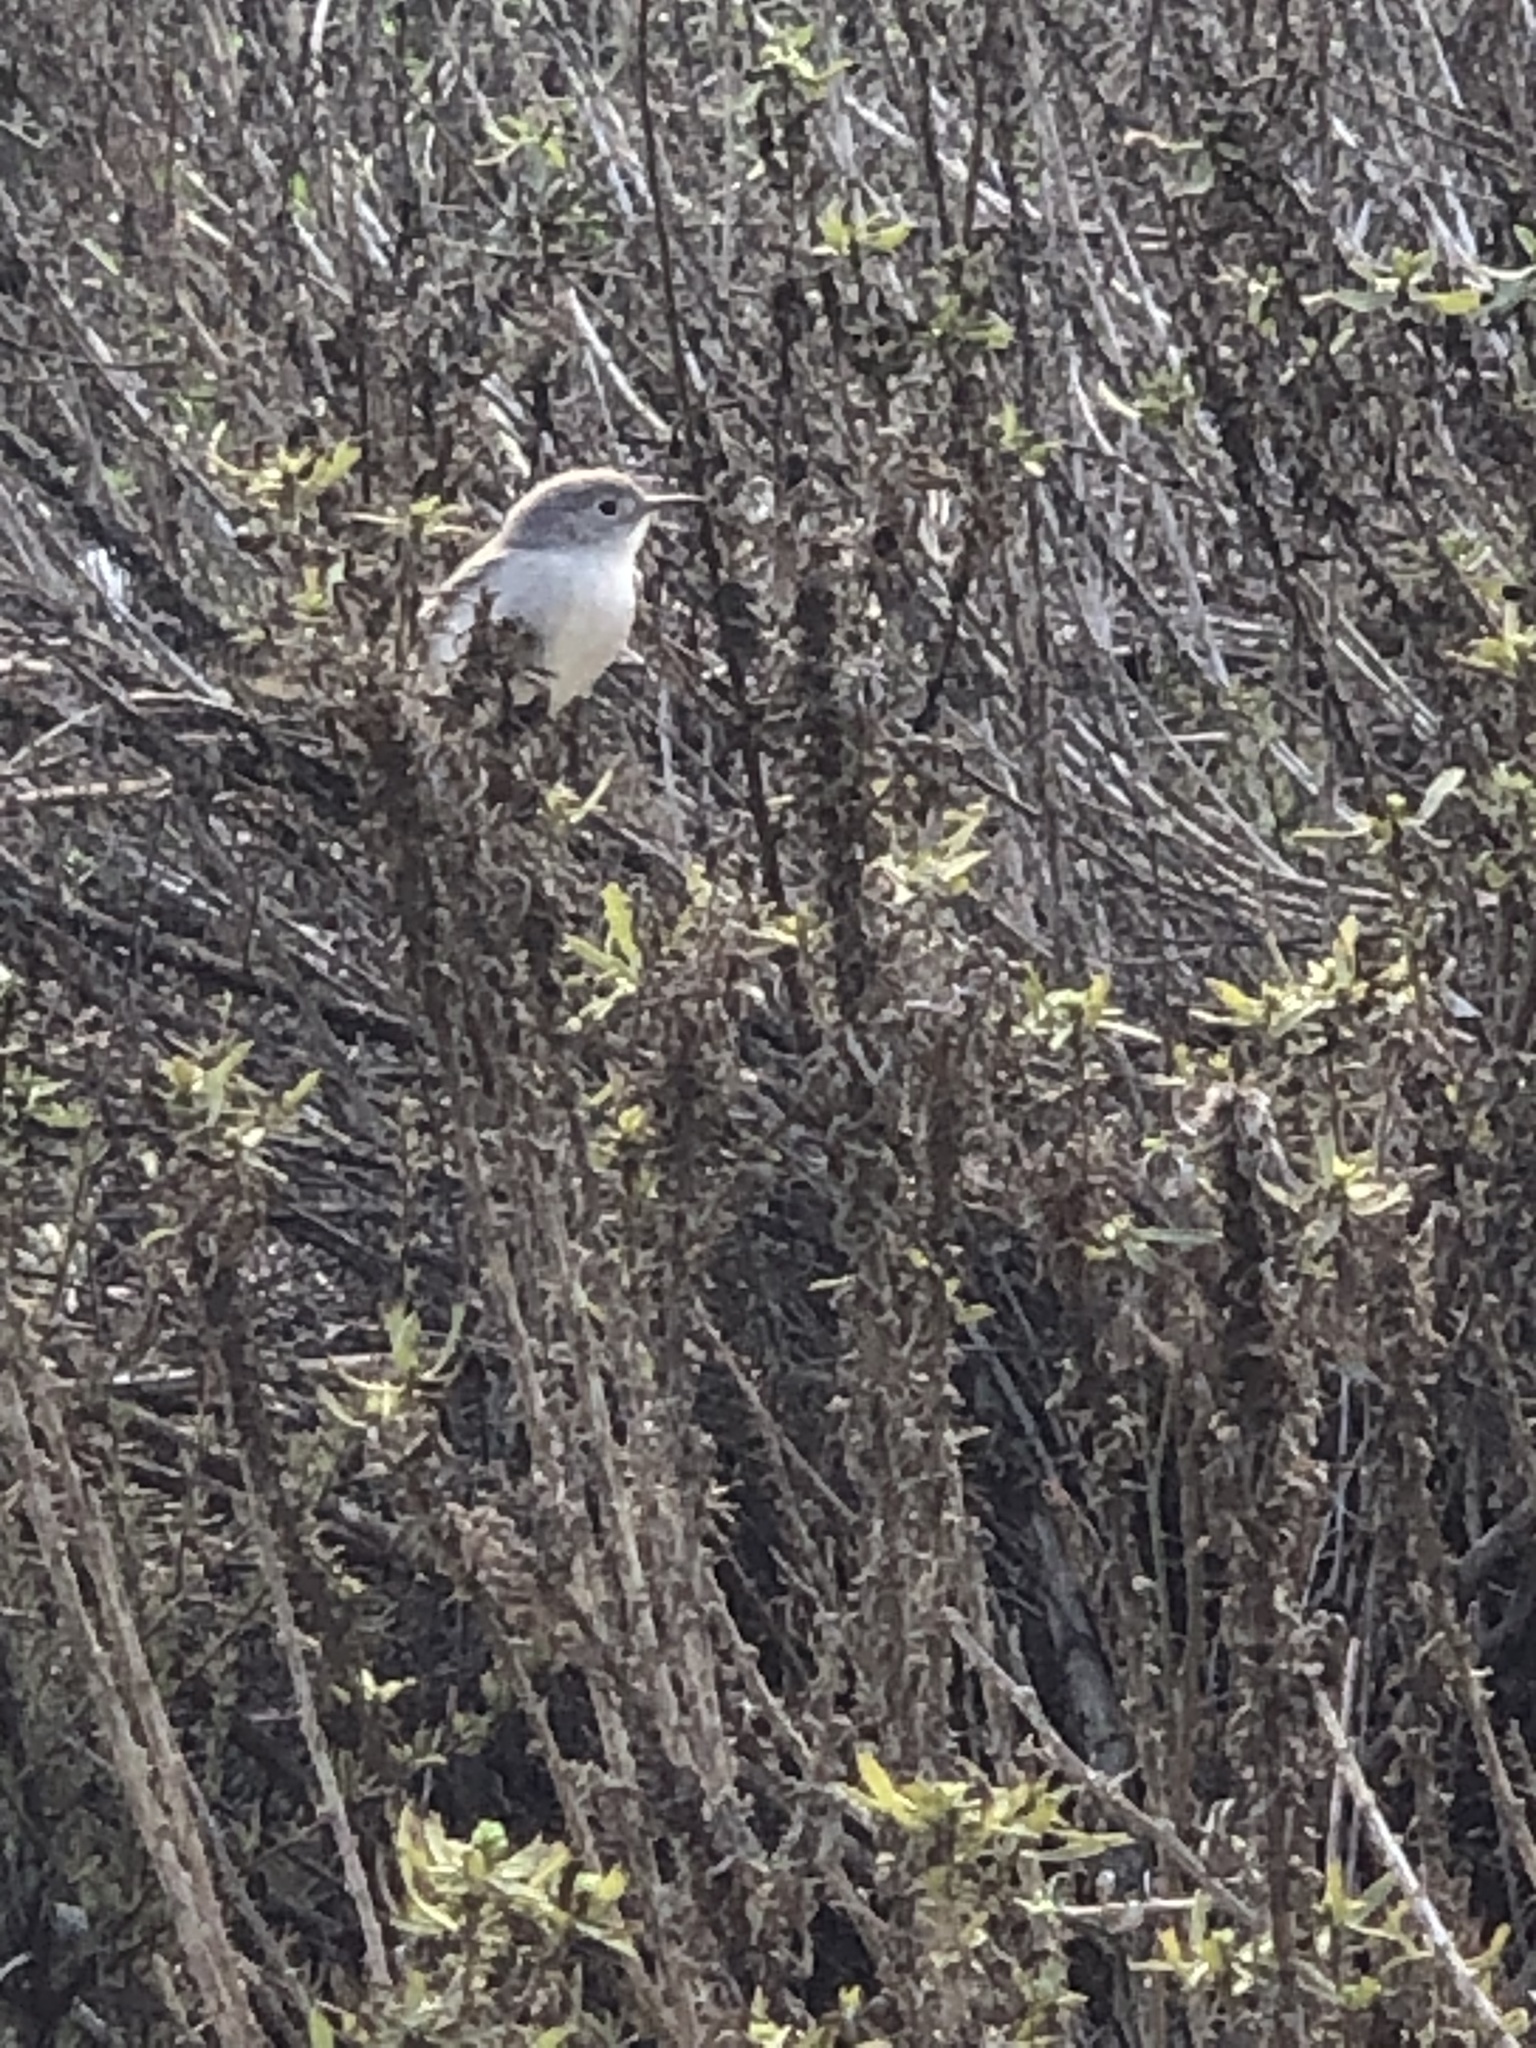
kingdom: Animalia
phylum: Chordata
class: Aves
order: Passeriformes
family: Polioptilidae
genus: Polioptila
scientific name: Polioptila caerulea
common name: Blue-gray gnatcatcher
